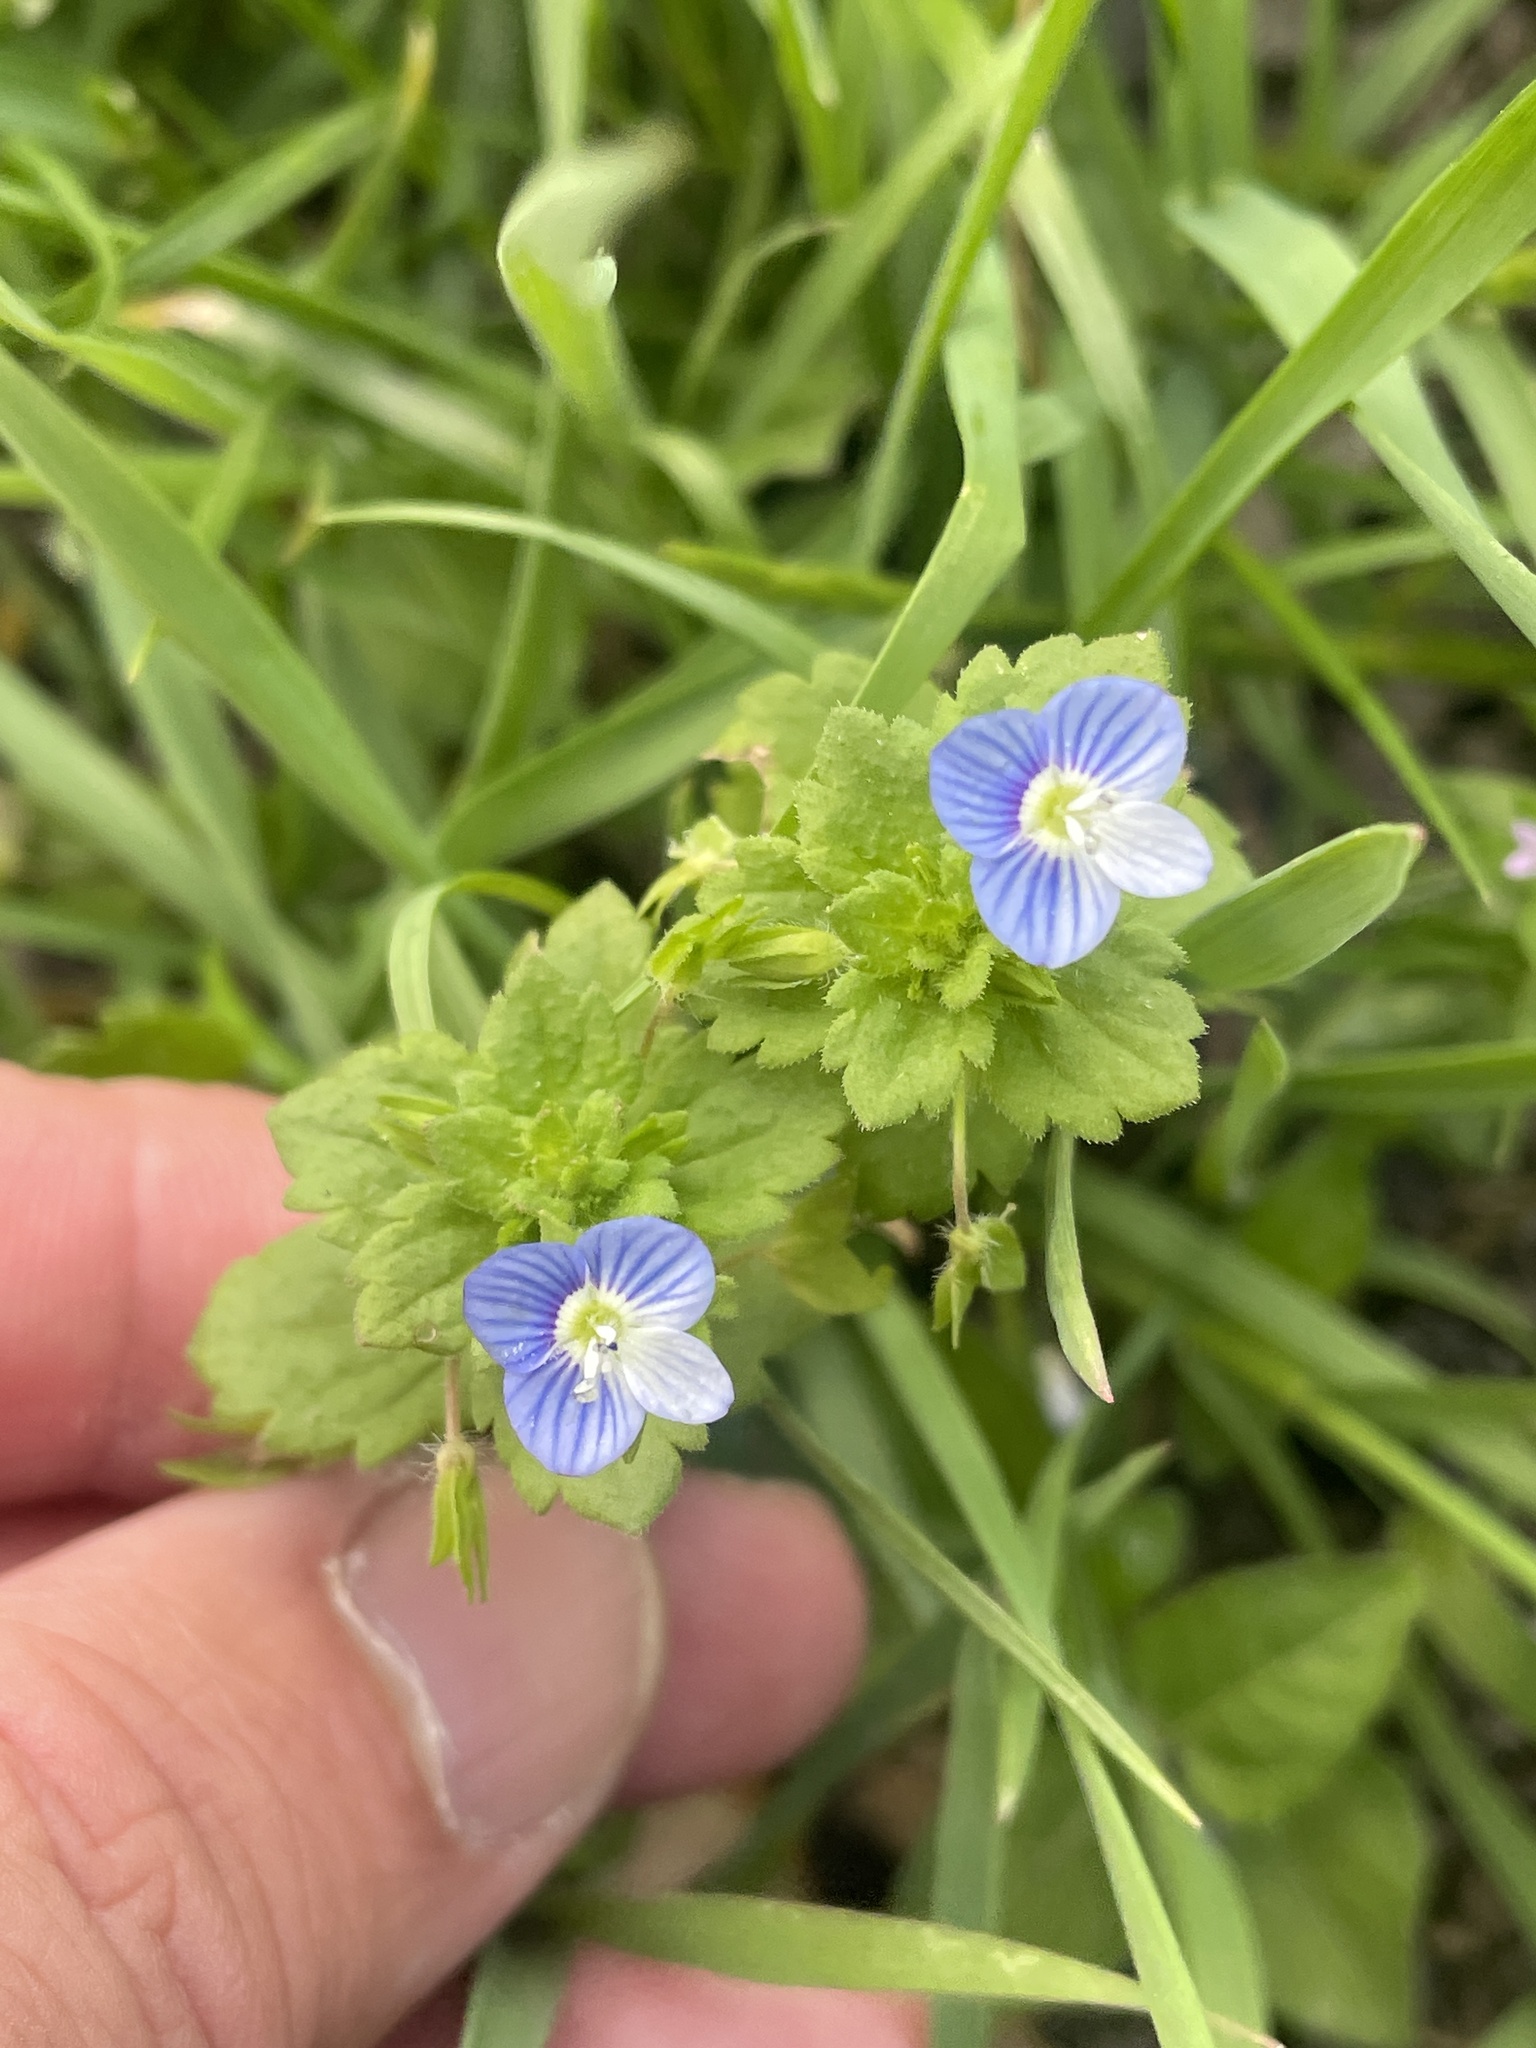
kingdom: Plantae
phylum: Tracheophyta
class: Magnoliopsida
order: Lamiales
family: Plantaginaceae
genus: Veronica
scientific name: Veronica persica
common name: Common field-speedwell
